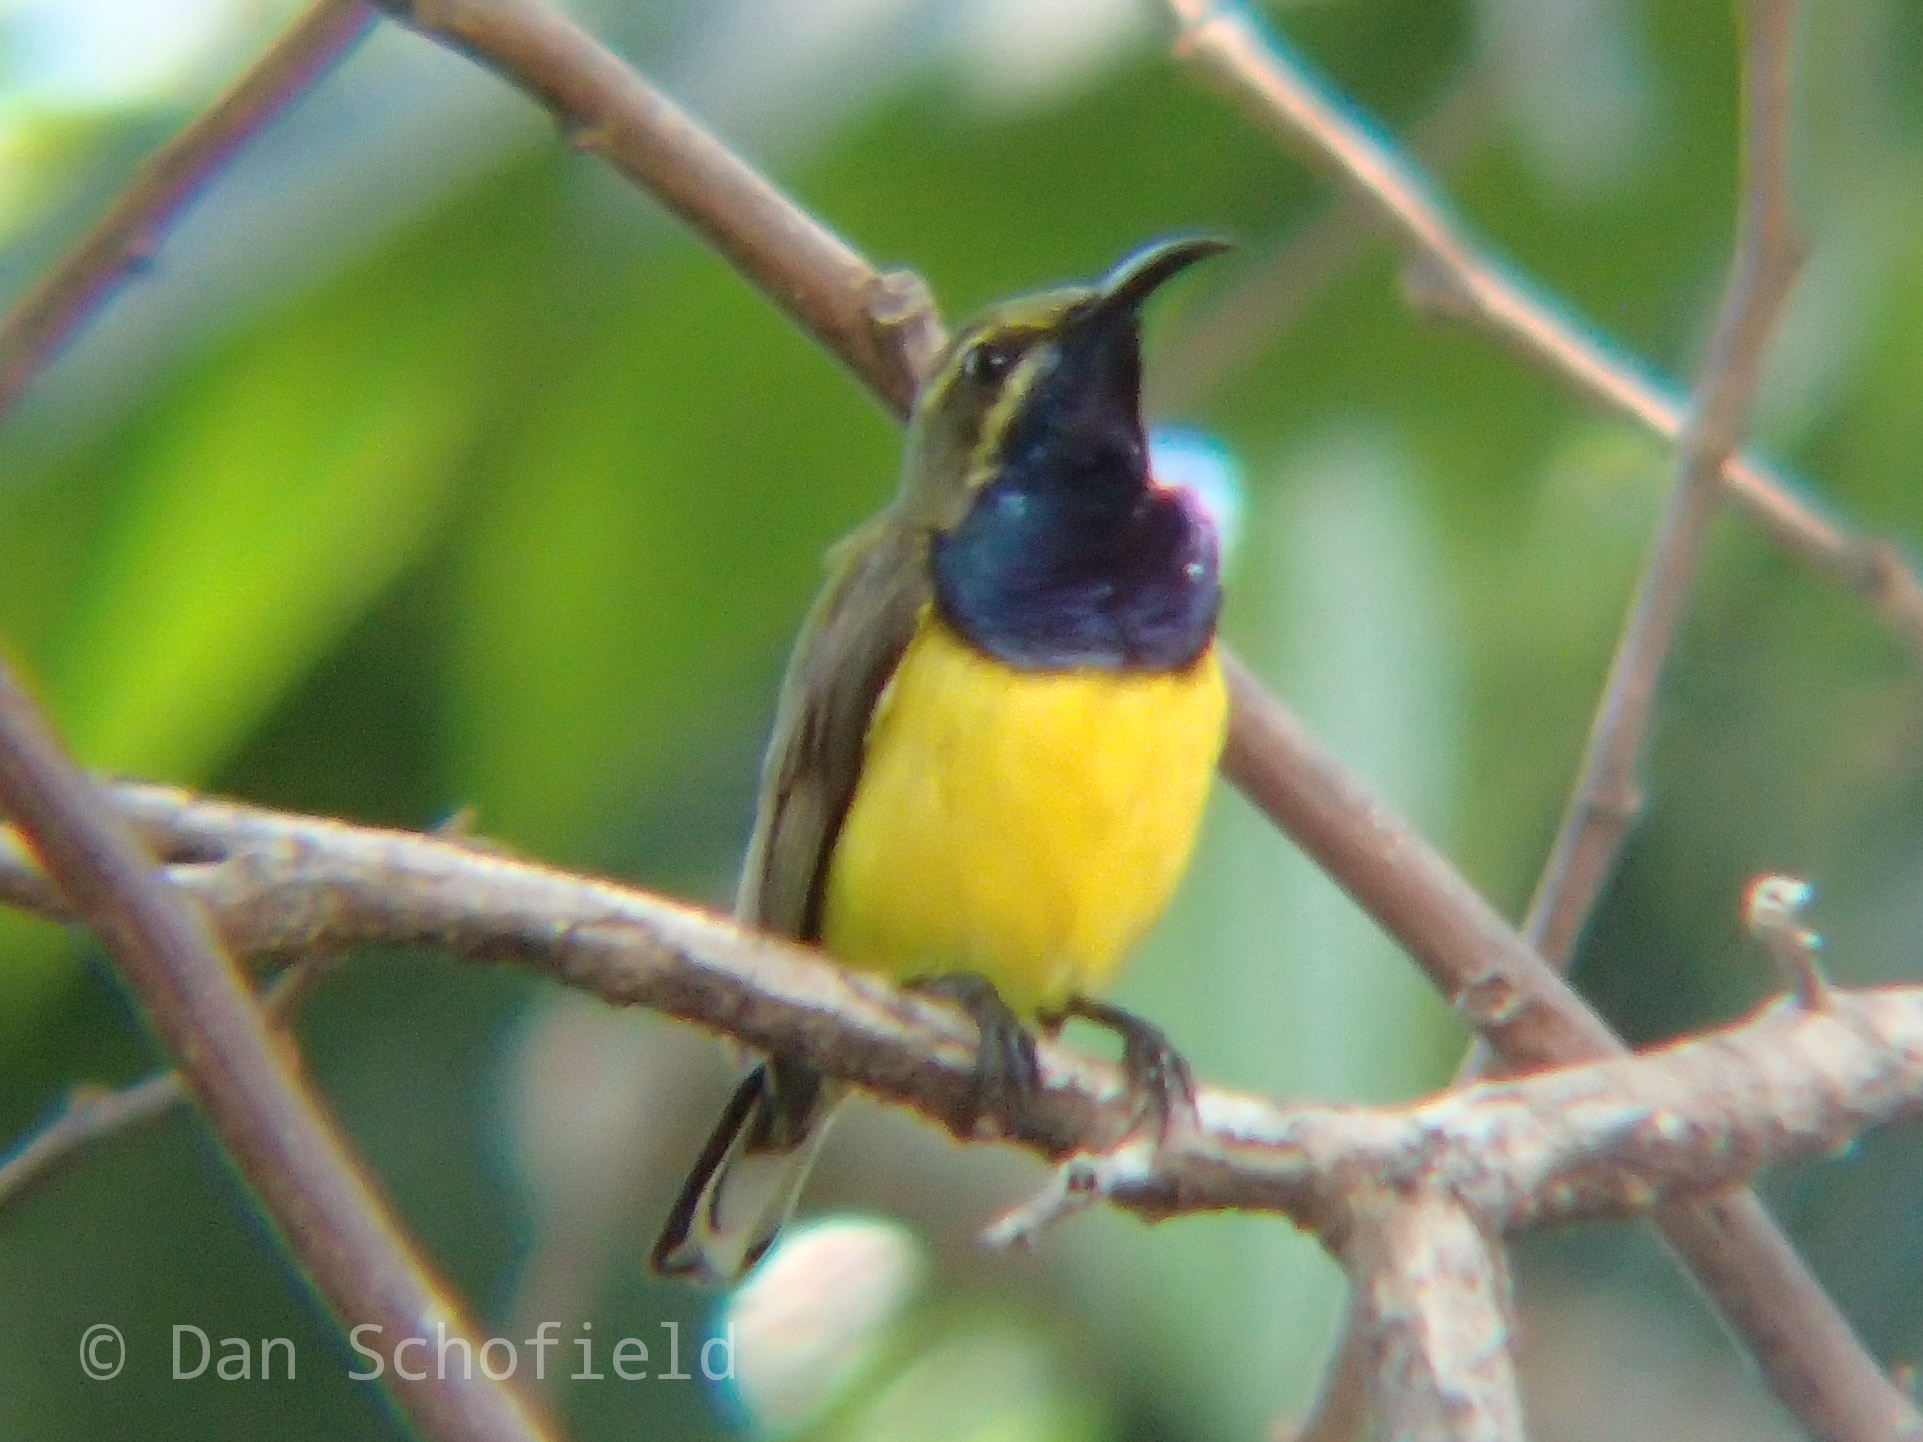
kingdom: Animalia
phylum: Chordata
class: Aves
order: Passeriformes
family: Nectariniidae
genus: Cinnyris
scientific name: Cinnyris
